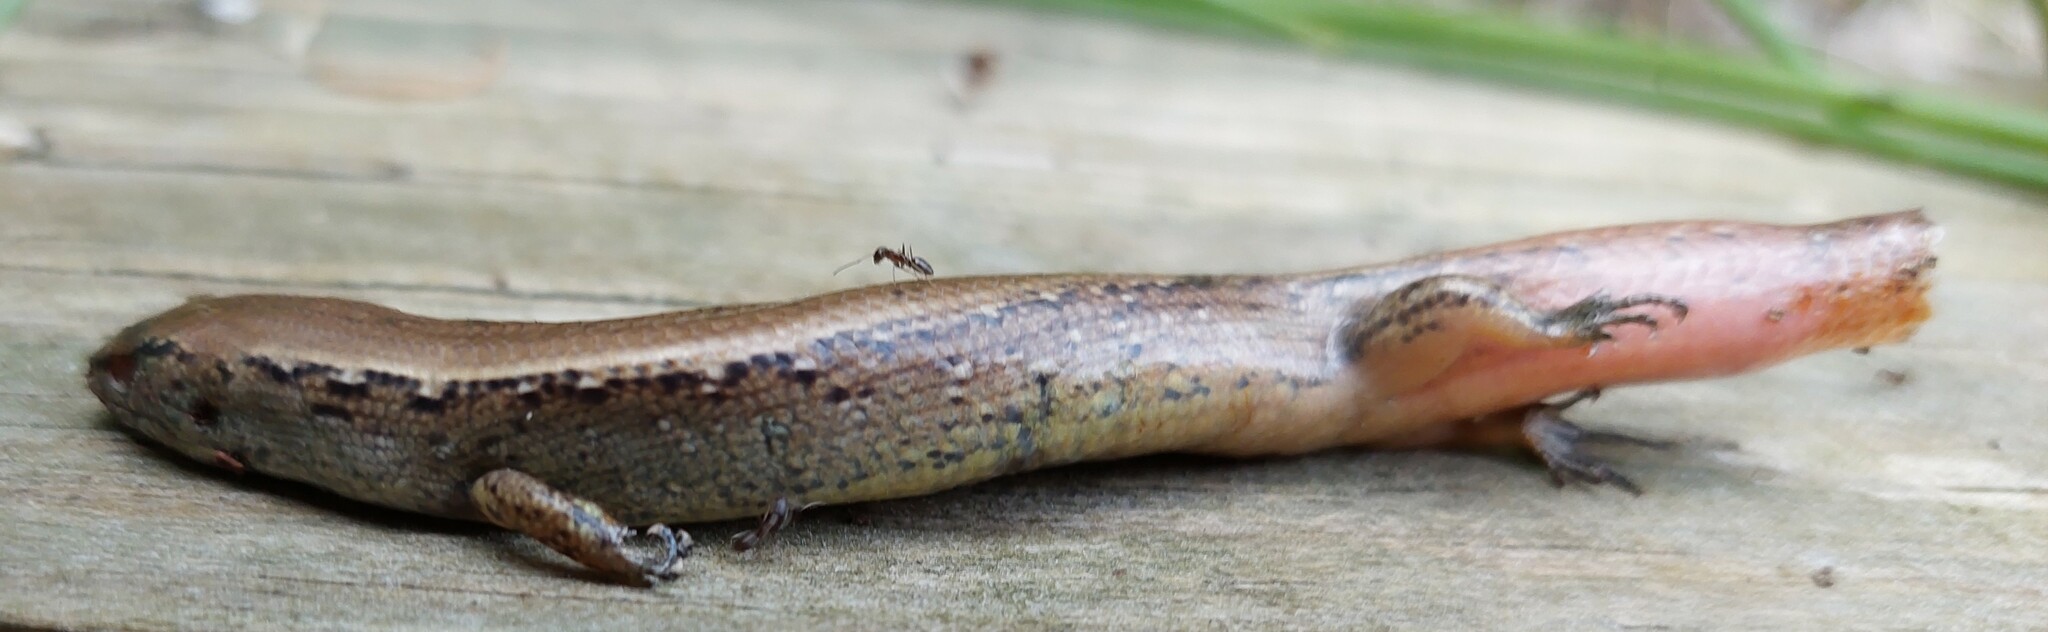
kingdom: Animalia
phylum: Chordata
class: Squamata
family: Scincidae
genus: Oligosoma
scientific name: Oligosoma aeneum
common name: Copper skink
